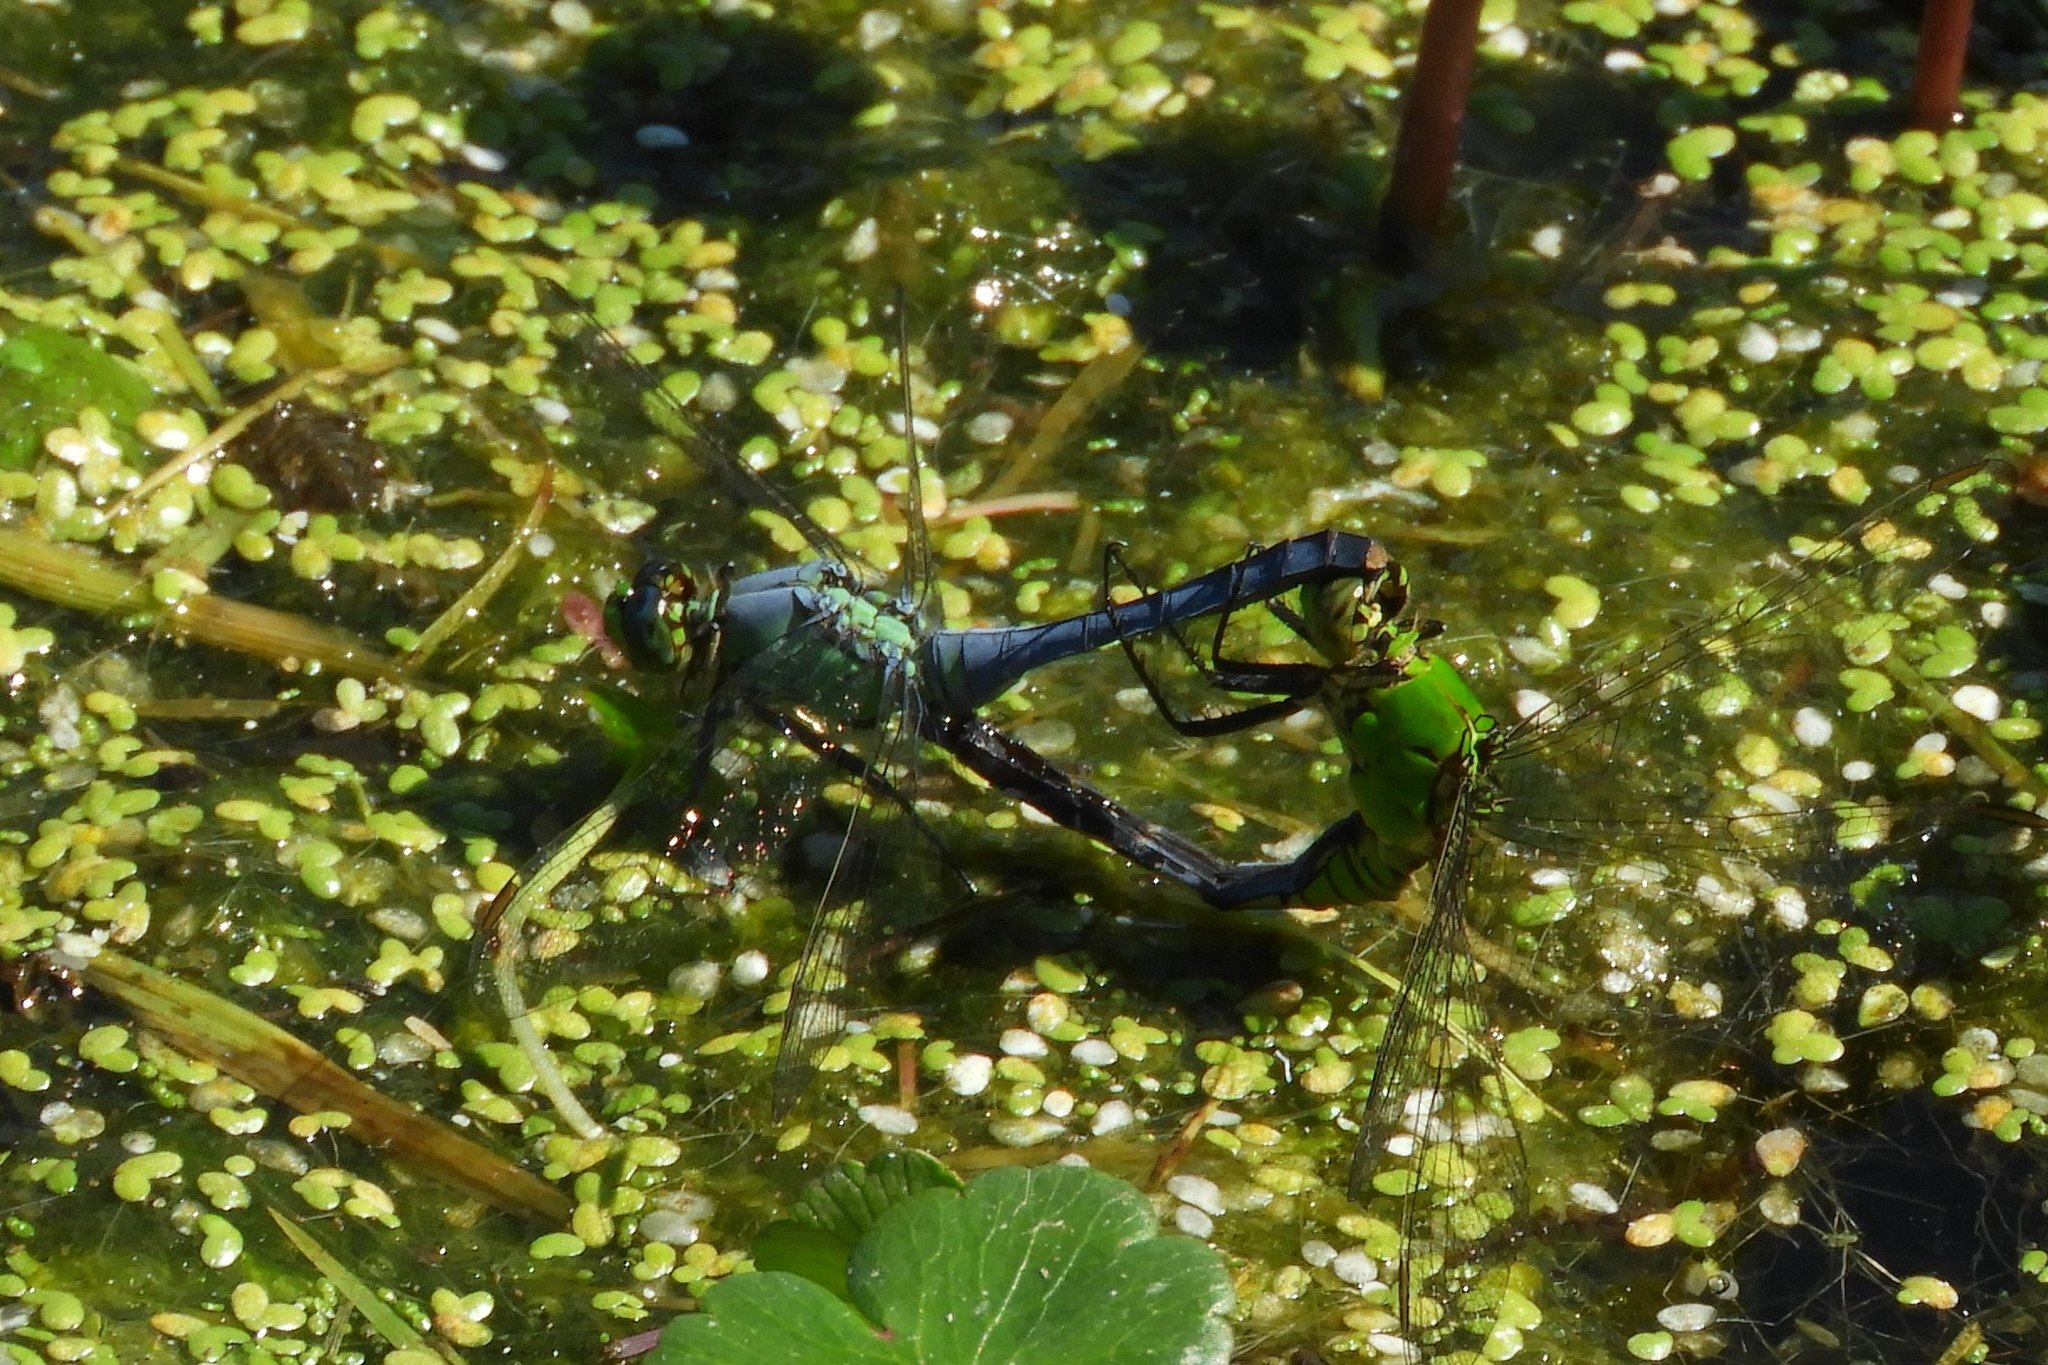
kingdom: Animalia
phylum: Arthropoda
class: Insecta
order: Odonata
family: Libellulidae
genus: Erythemis
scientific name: Erythemis simplicicollis
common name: Eastern pondhawk
